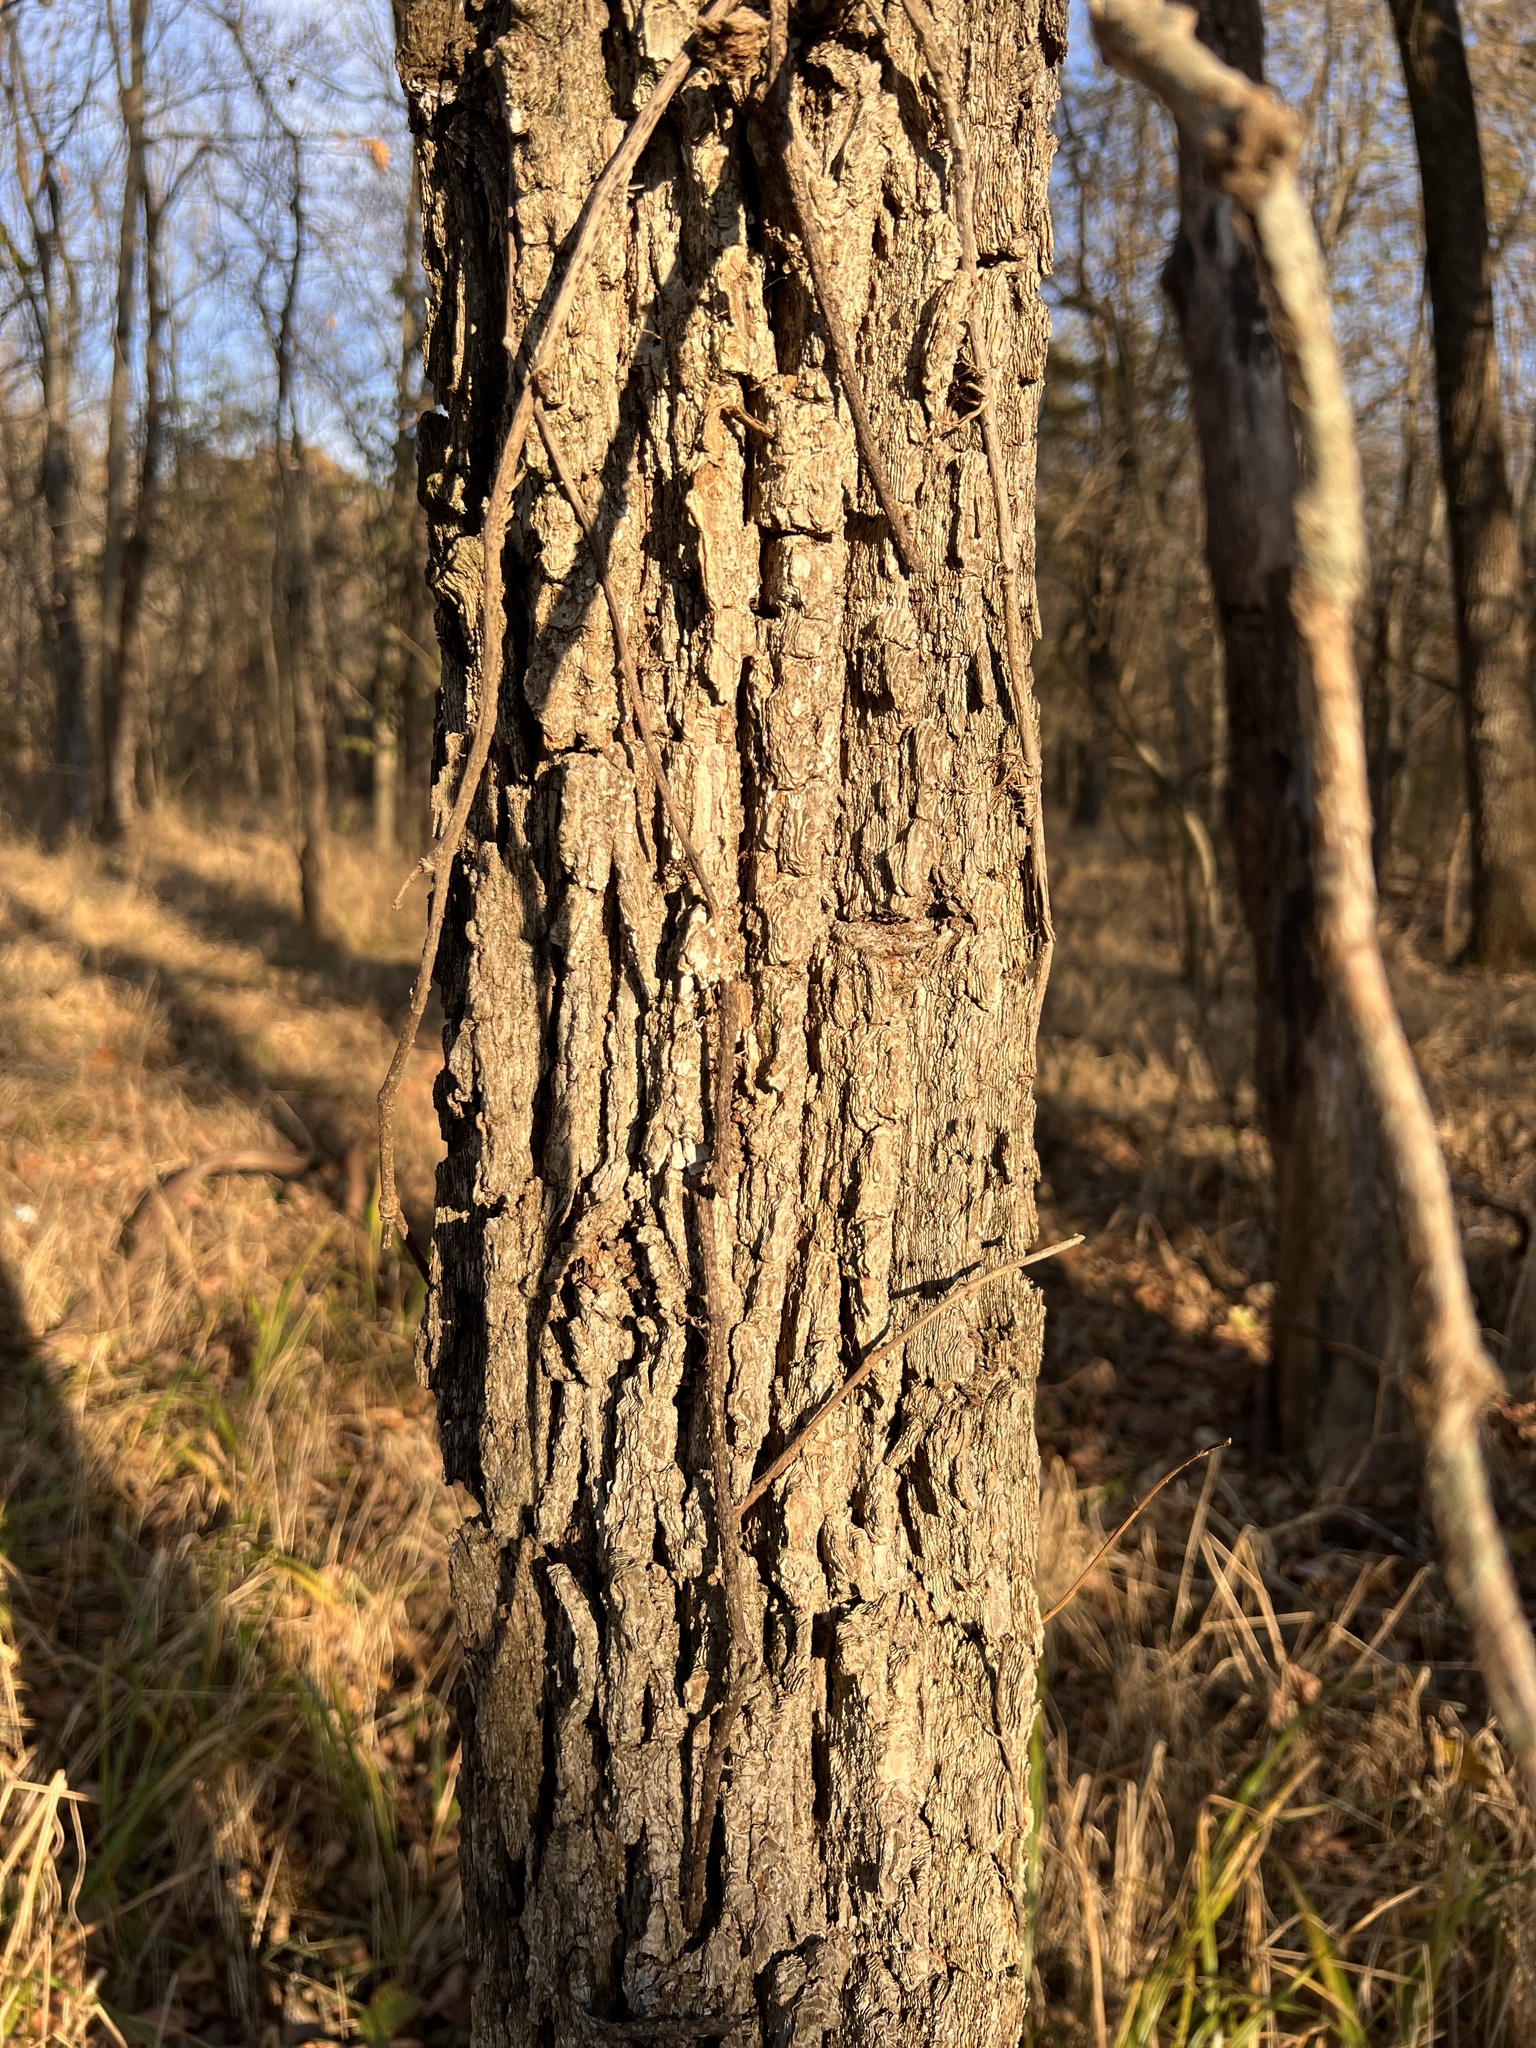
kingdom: Plantae
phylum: Tracheophyta
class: Magnoliopsida
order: Fagales
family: Fagaceae
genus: Quercus
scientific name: Quercus macrocarpa
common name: Bur oak
